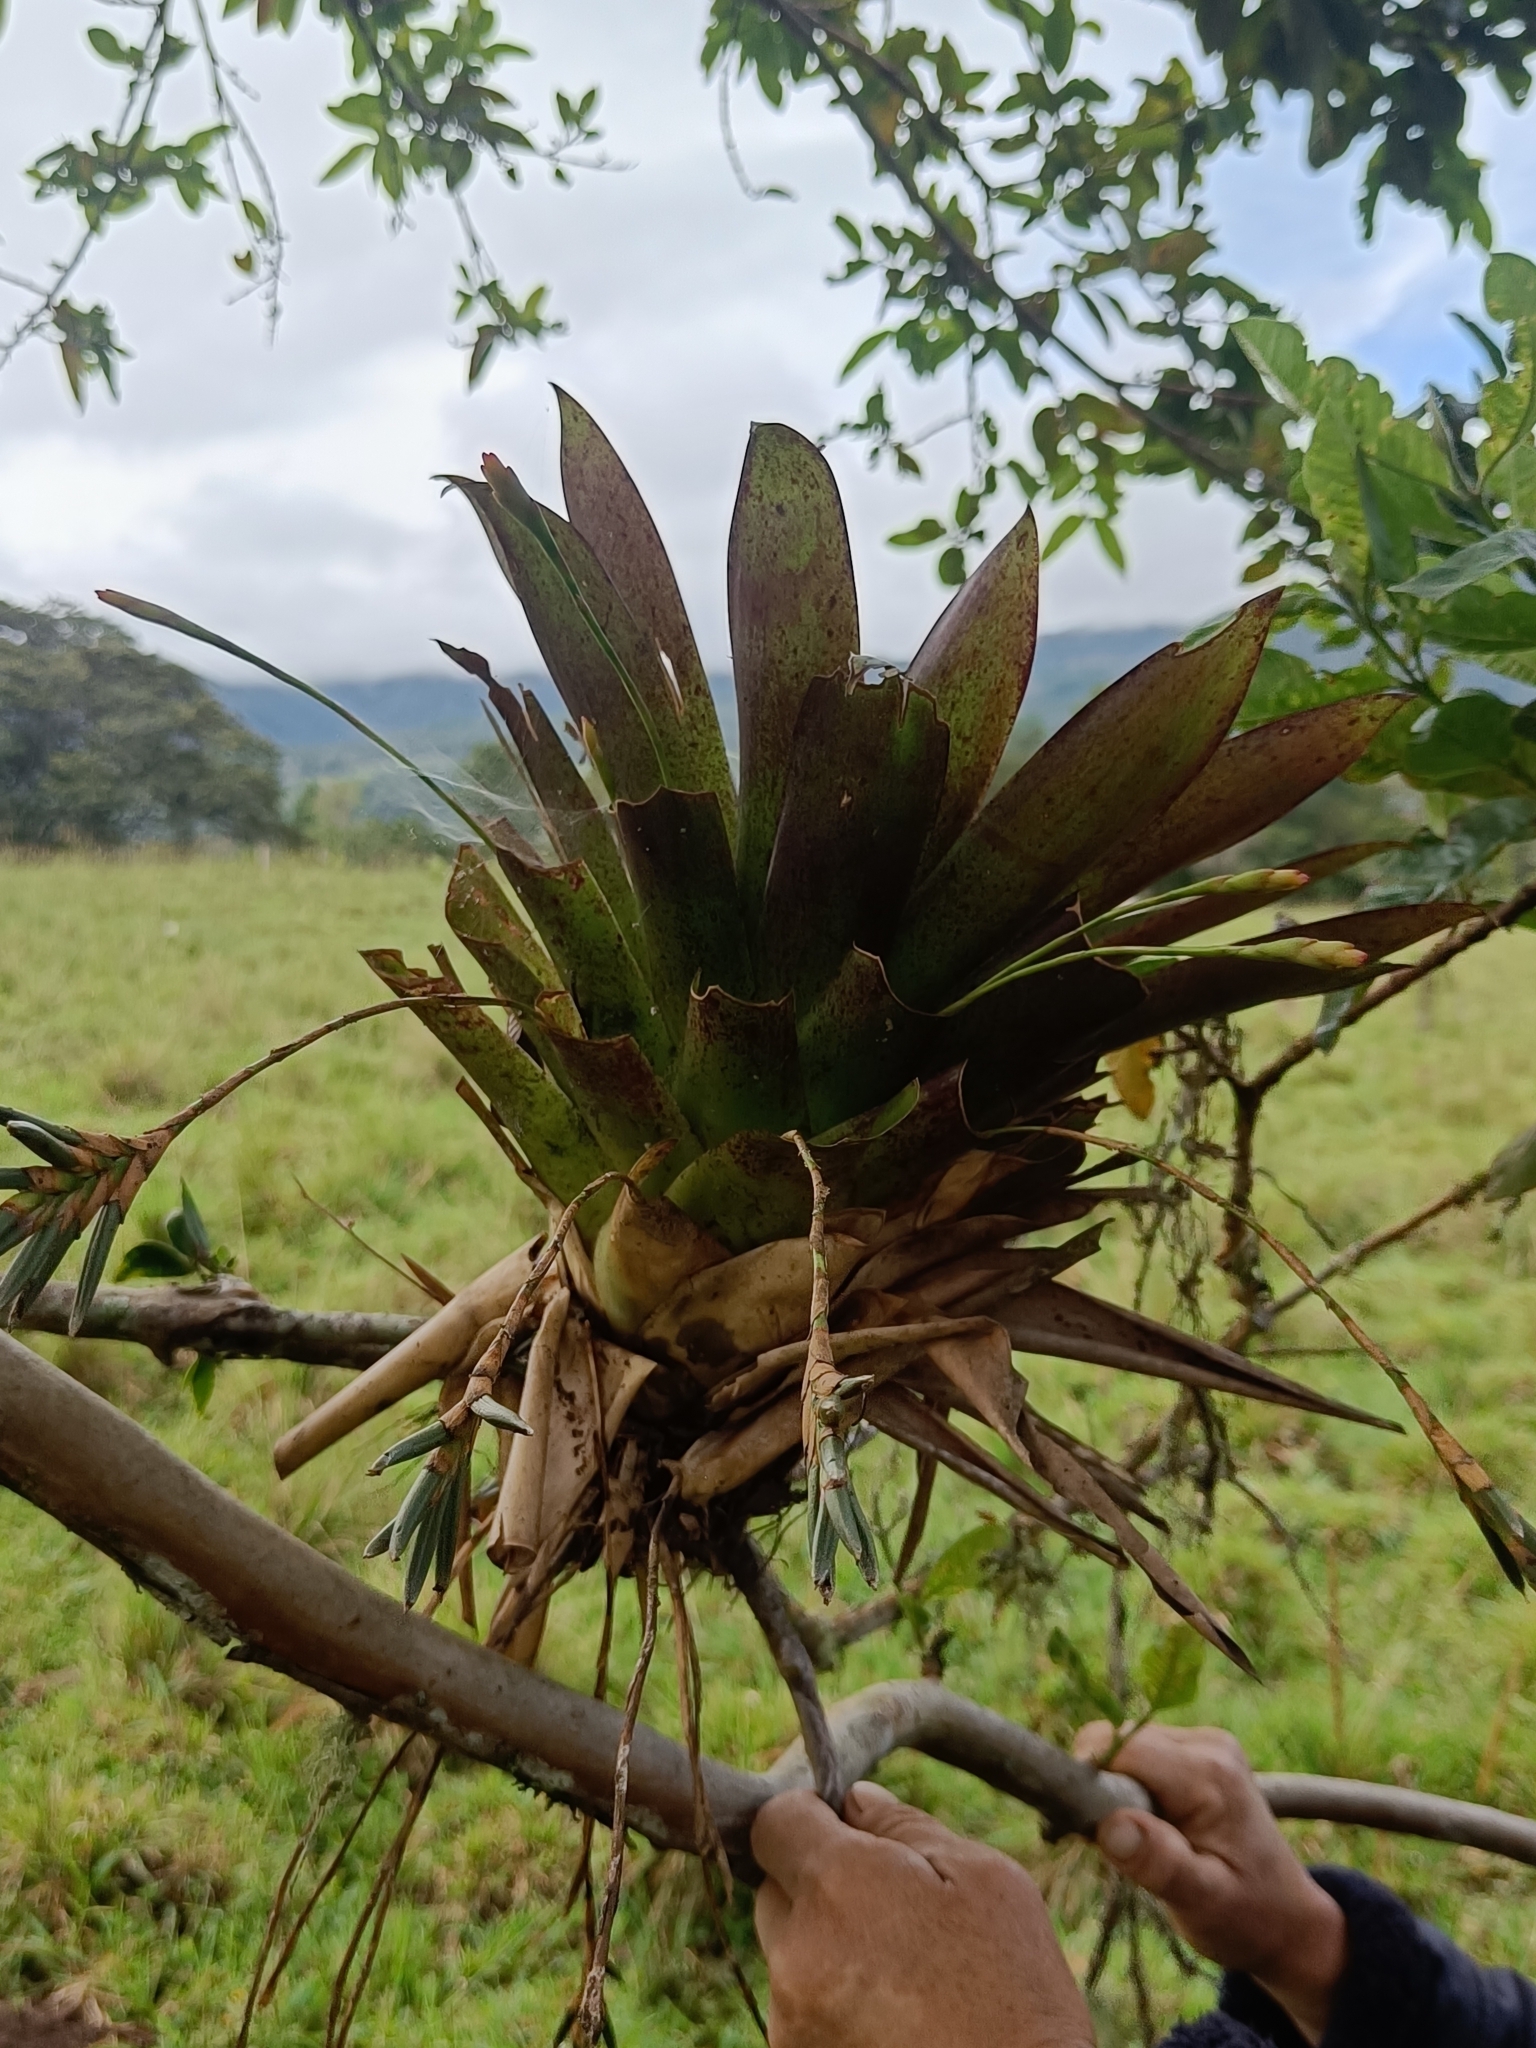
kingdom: Plantae
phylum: Tracheophyta
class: Liliopsida
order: Poales
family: Bromeliaceae
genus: Tillandsia
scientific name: Tillandsia complanata
